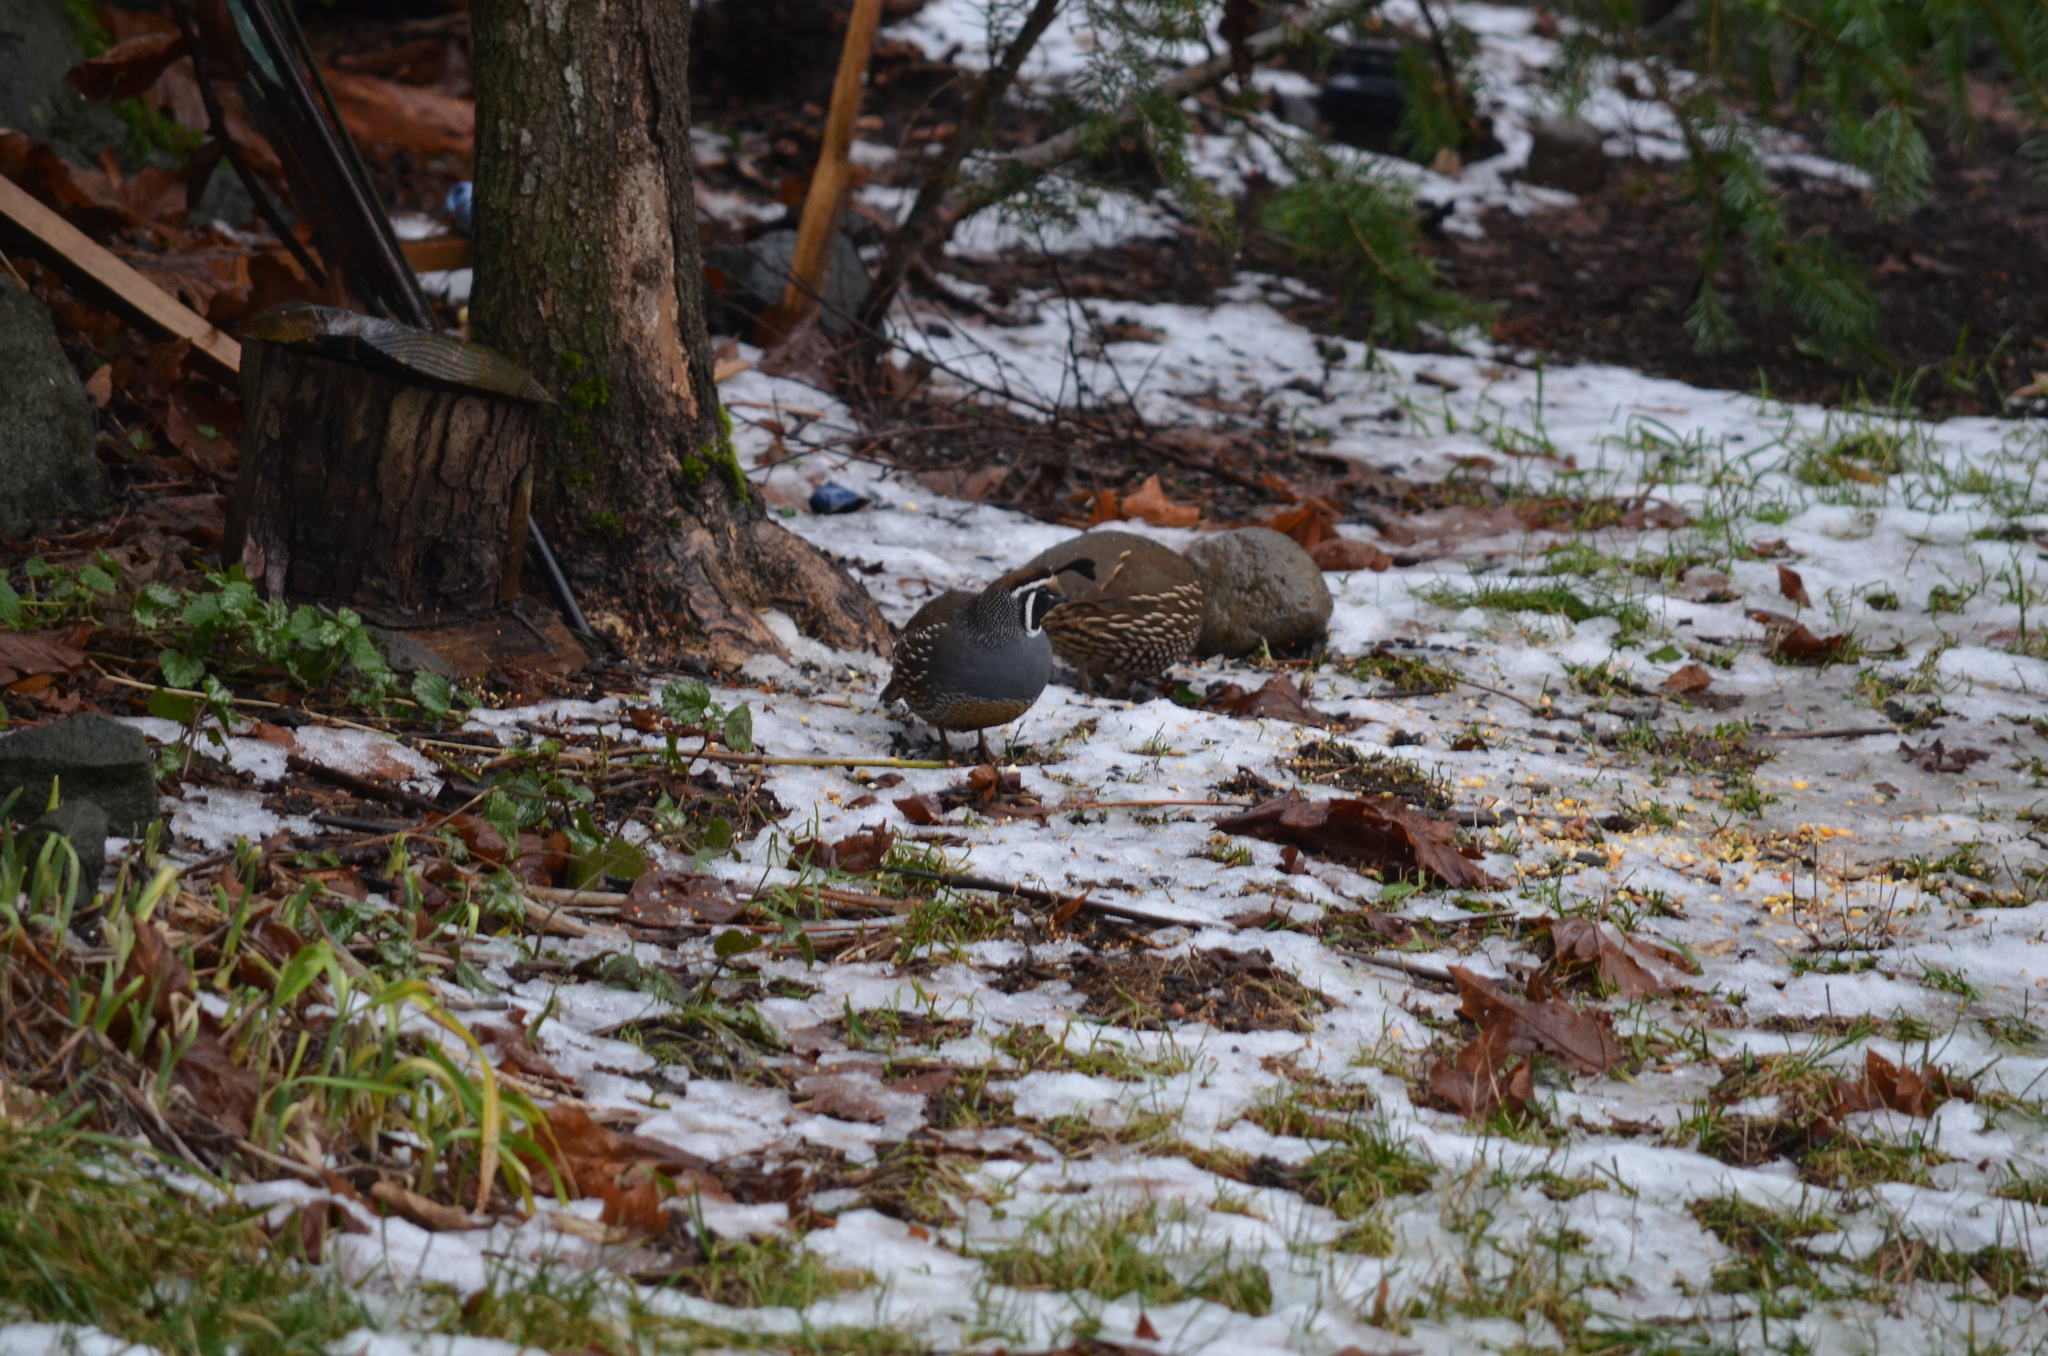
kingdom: Animalia
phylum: Chordata
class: Aves
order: Galliformes
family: Odontophoridae
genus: Callipepla
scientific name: Callipepla californica
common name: California quail
